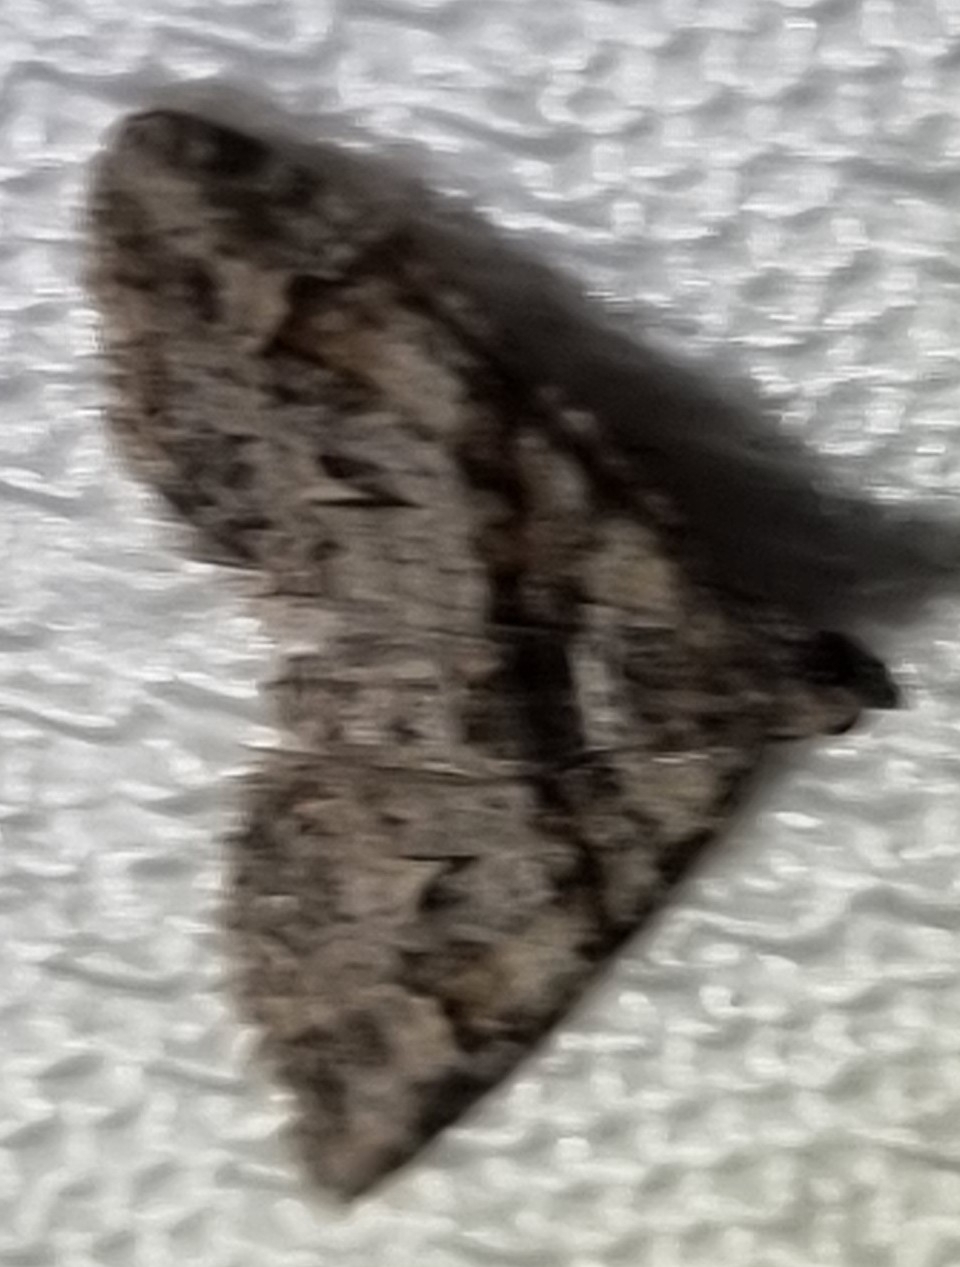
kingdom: Animalia
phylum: Arthropoda
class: Insecta
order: Lepidoptera
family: Geometridae
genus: Phrissogonus
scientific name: Phrissogonus laticostata
